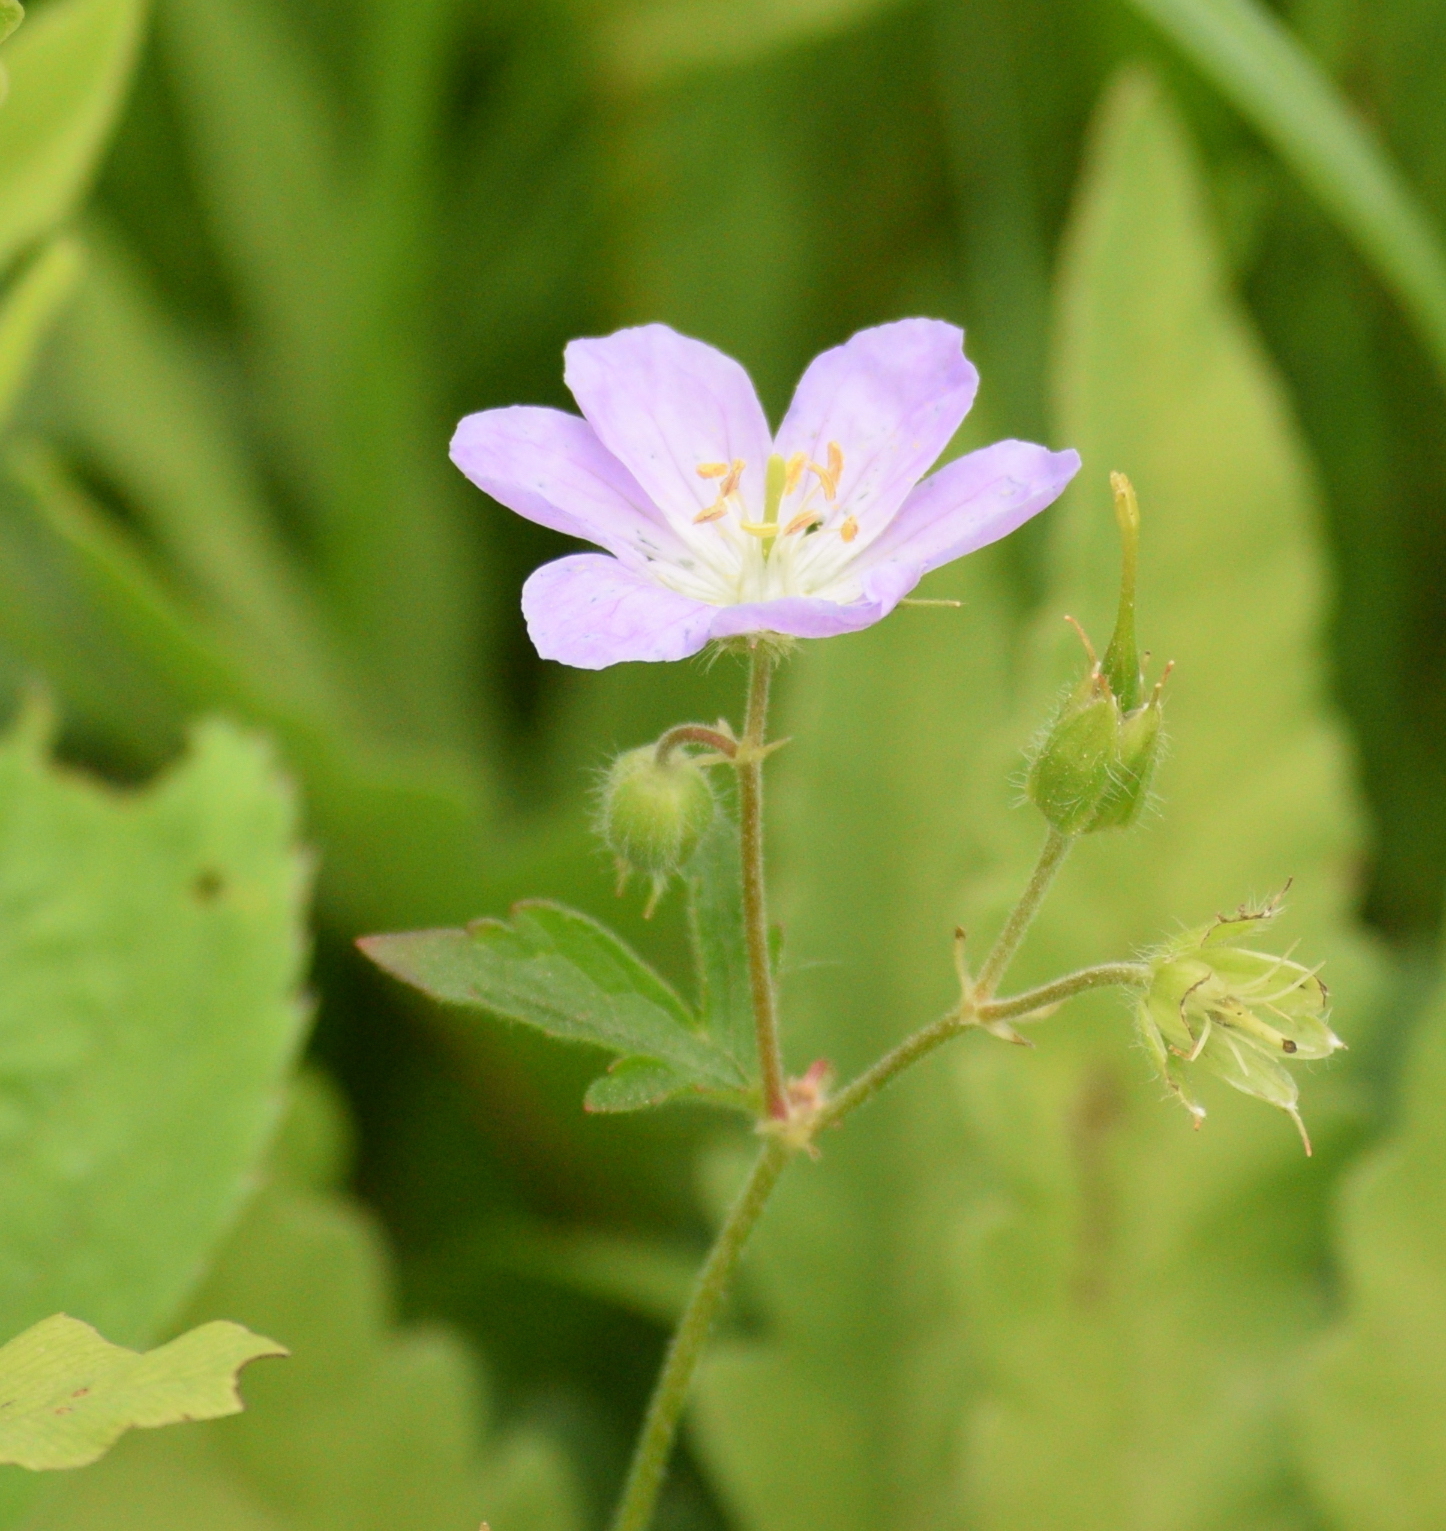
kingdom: Plantae
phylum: Tracheophyta
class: Magnoliopsida
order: Geraniales
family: Geraniaceae
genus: Geranium
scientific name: Geranium maculatum
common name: Spotted geranium
